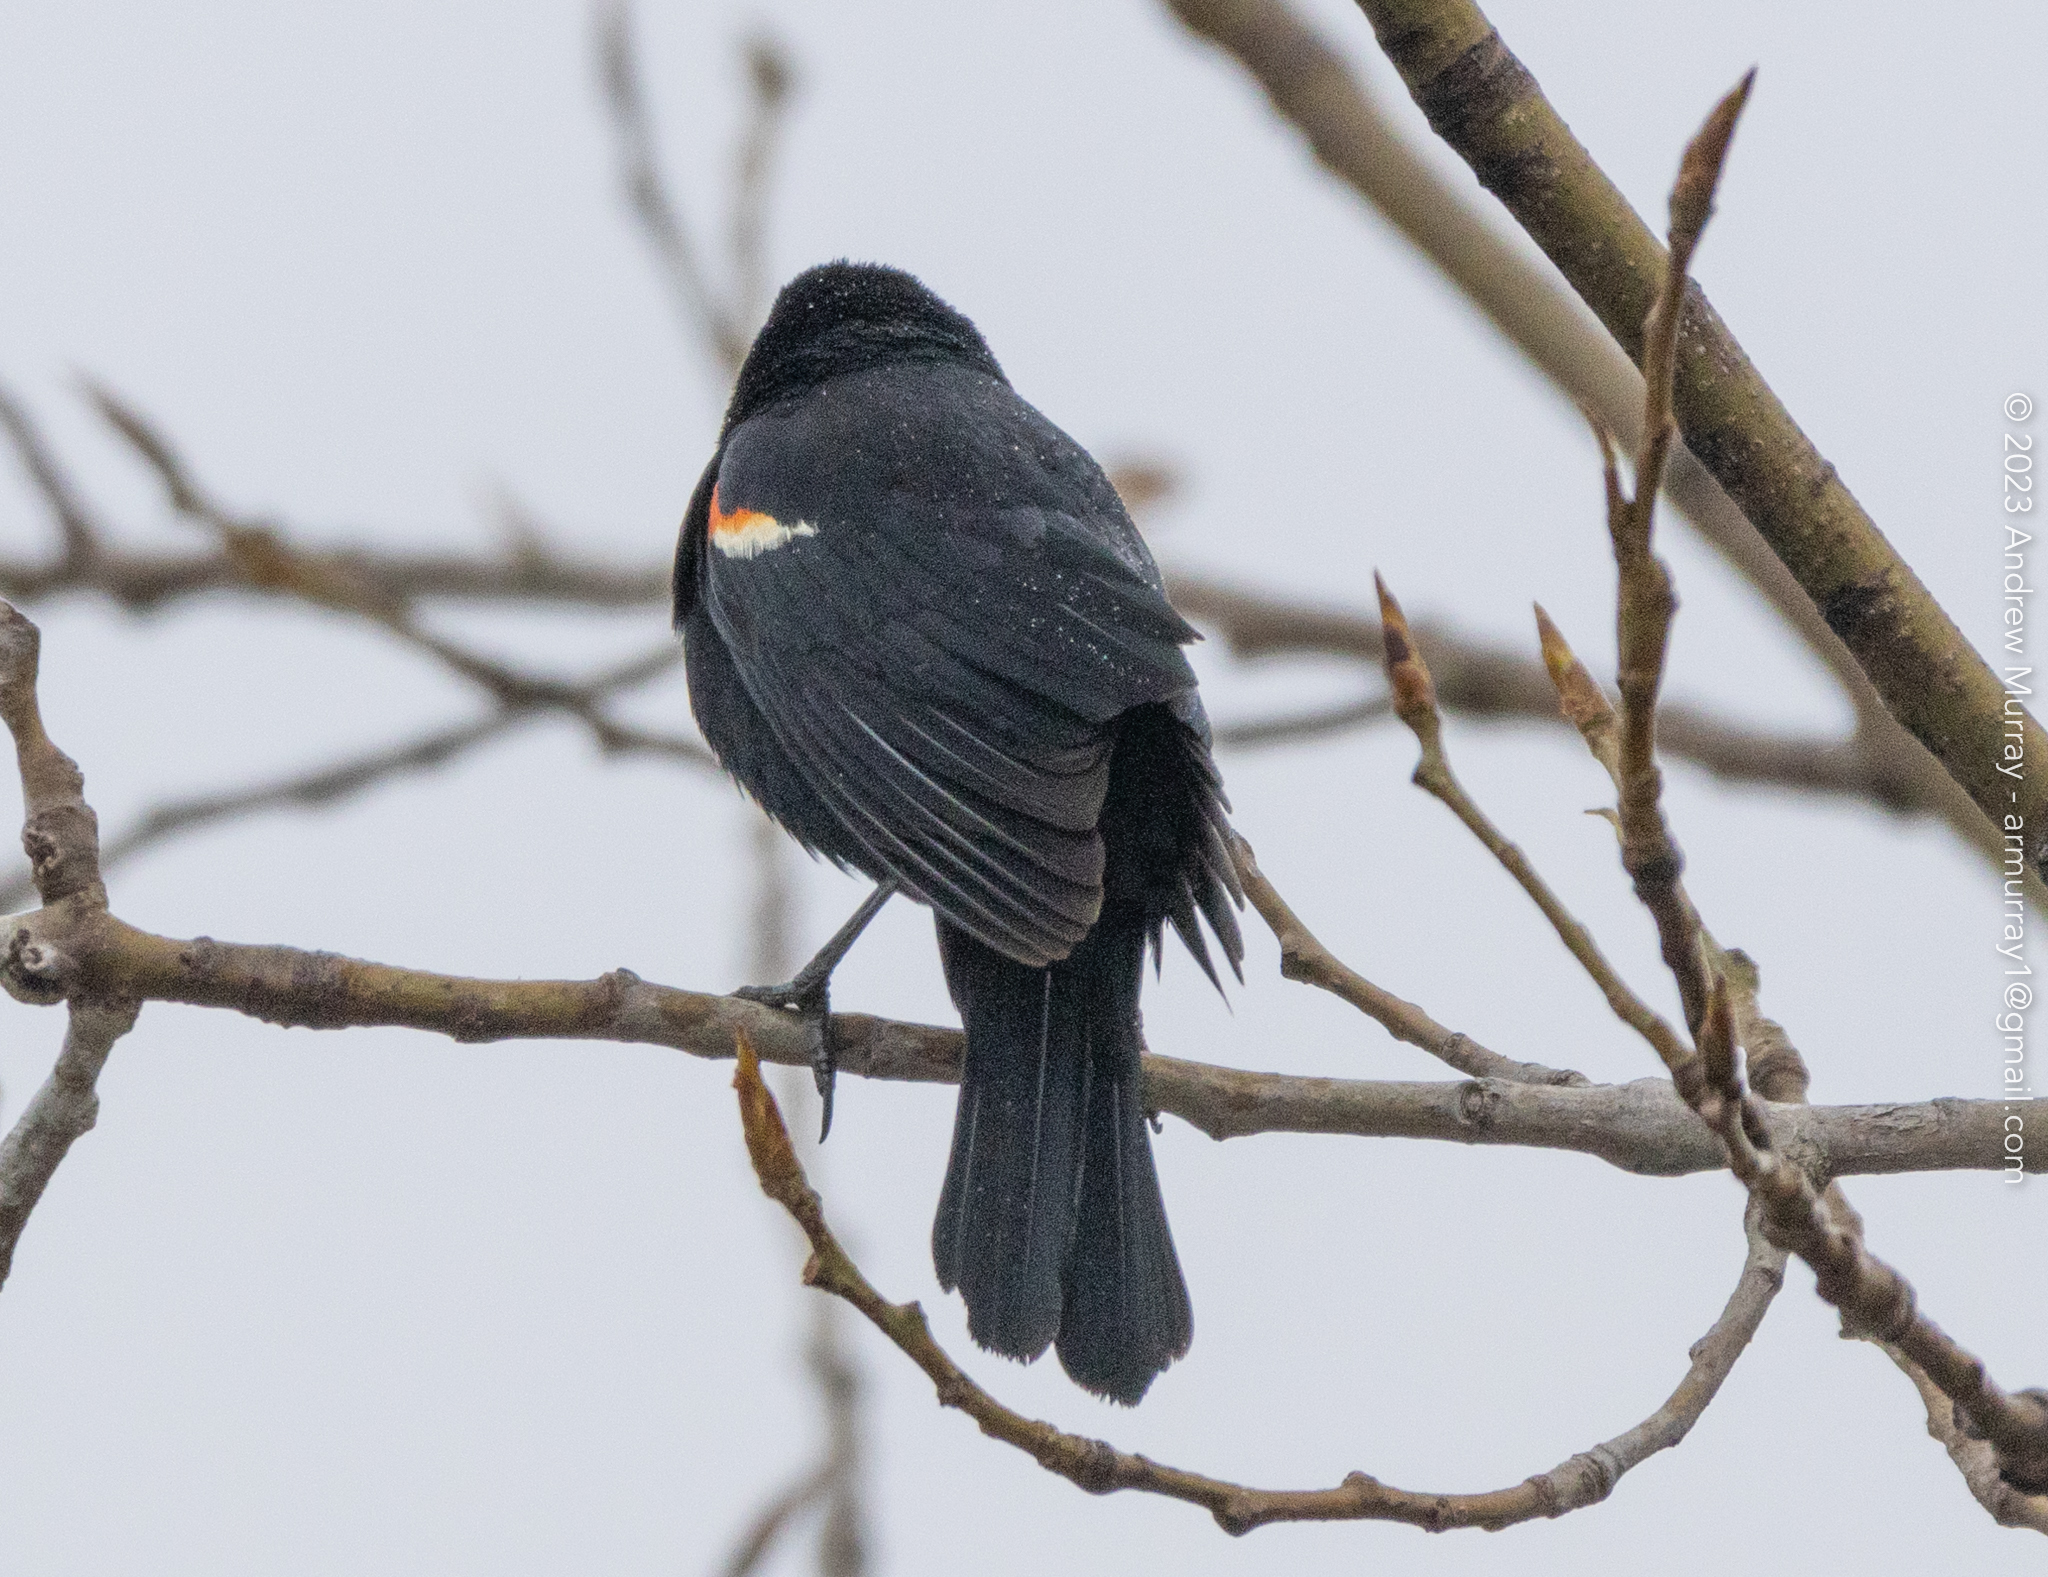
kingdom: Animalia
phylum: Chordata
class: Aves
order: Passeriformes
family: Icteridae
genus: Agelaius
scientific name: Agelaius phoeniceus
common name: Red-winged blackbird
